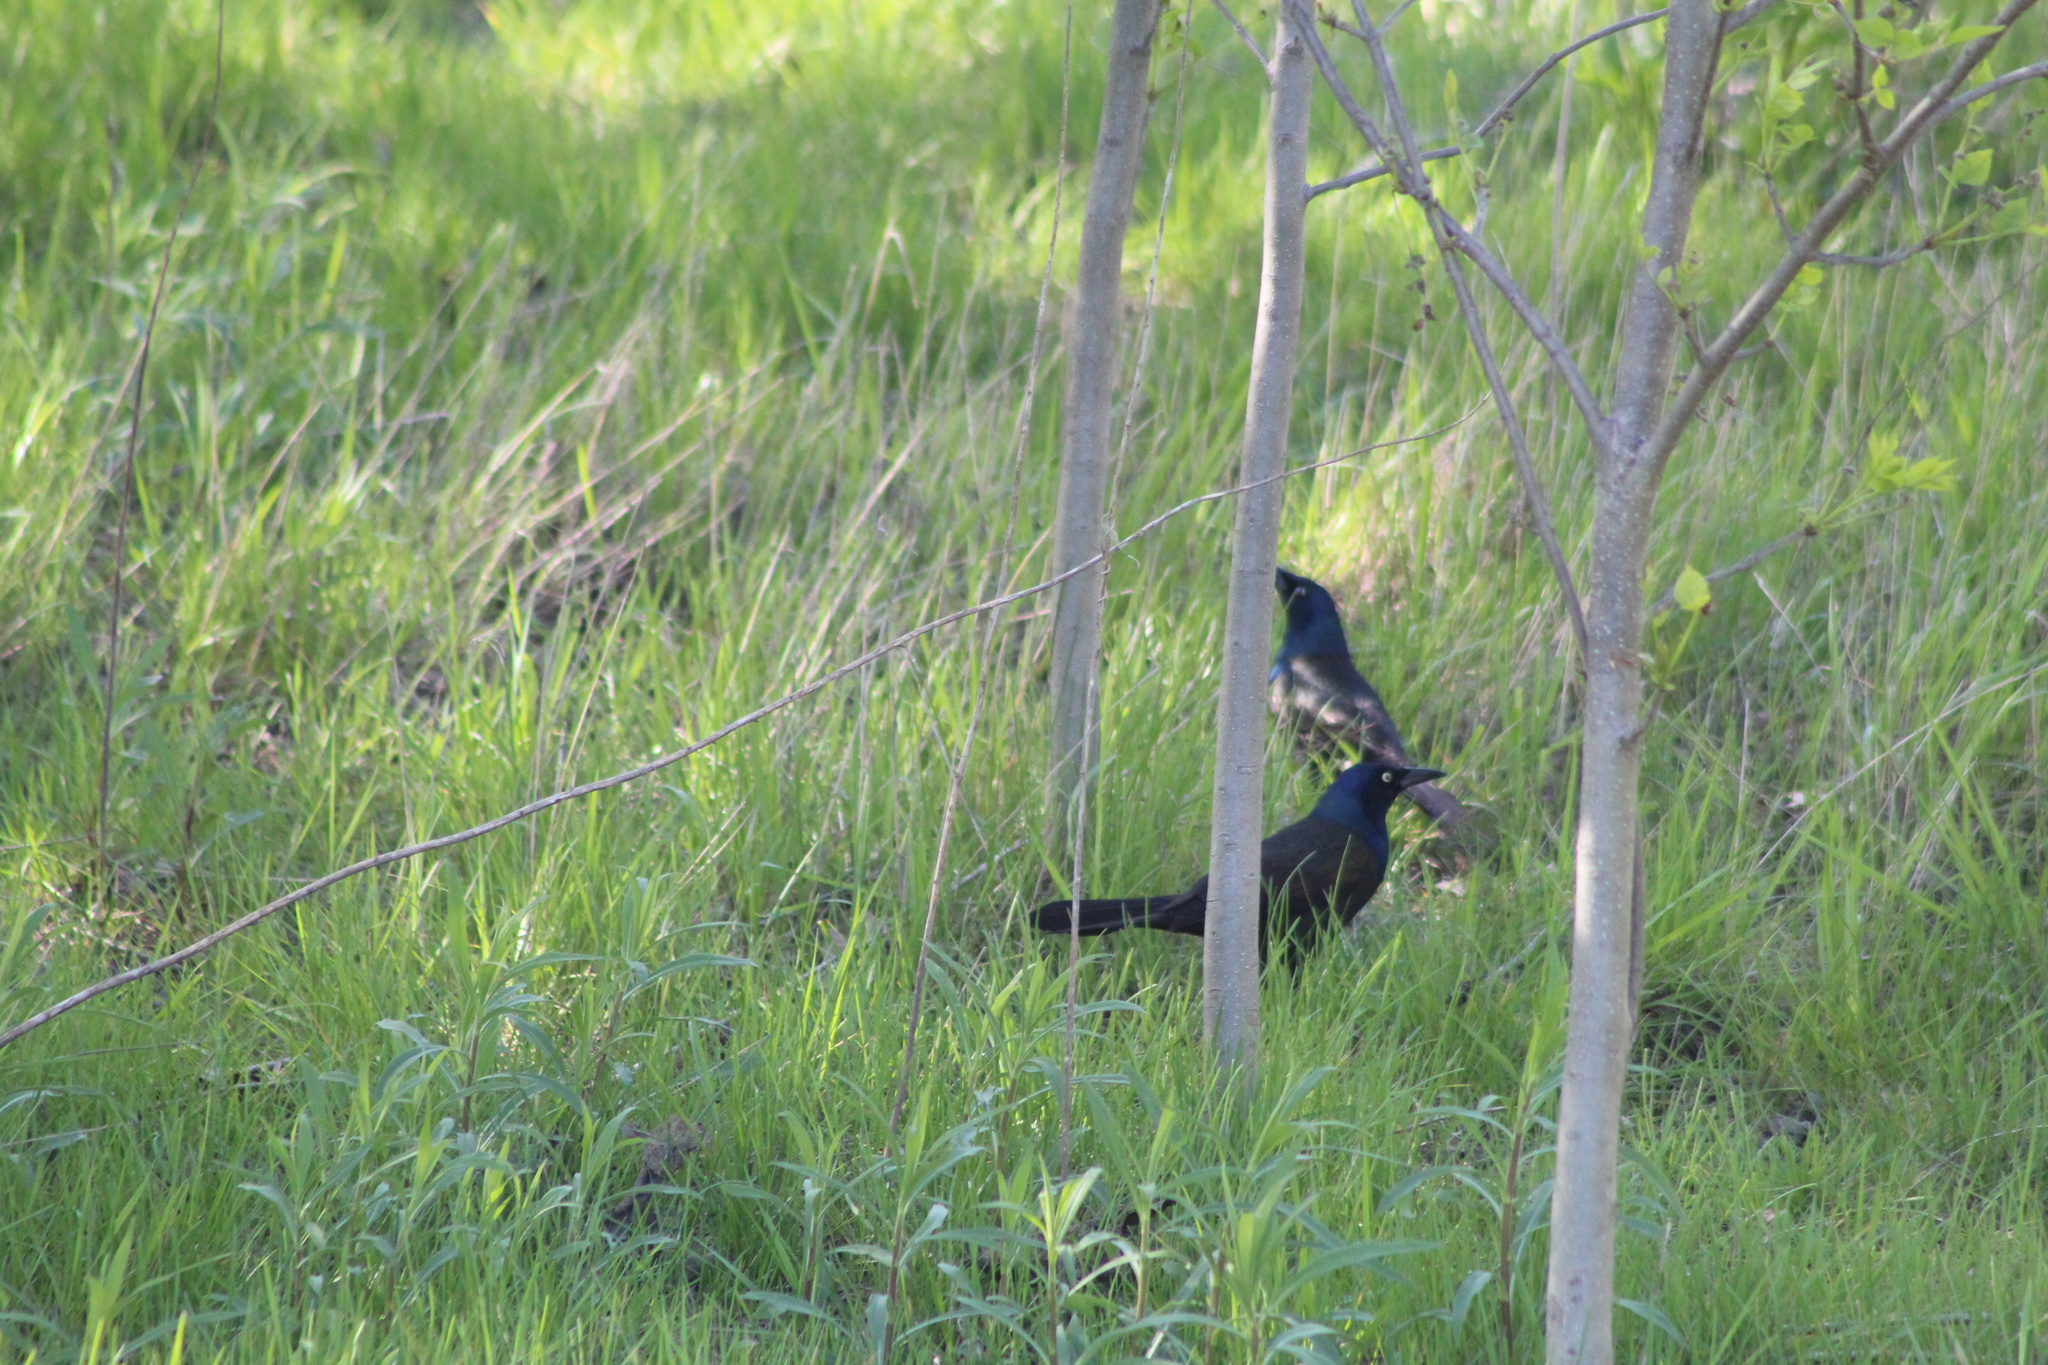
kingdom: Animalia
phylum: Chordata
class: Aves
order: Passeriformes
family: Icteridae
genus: Quiscalus
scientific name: Quiscalus quiscula
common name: Common grackle
